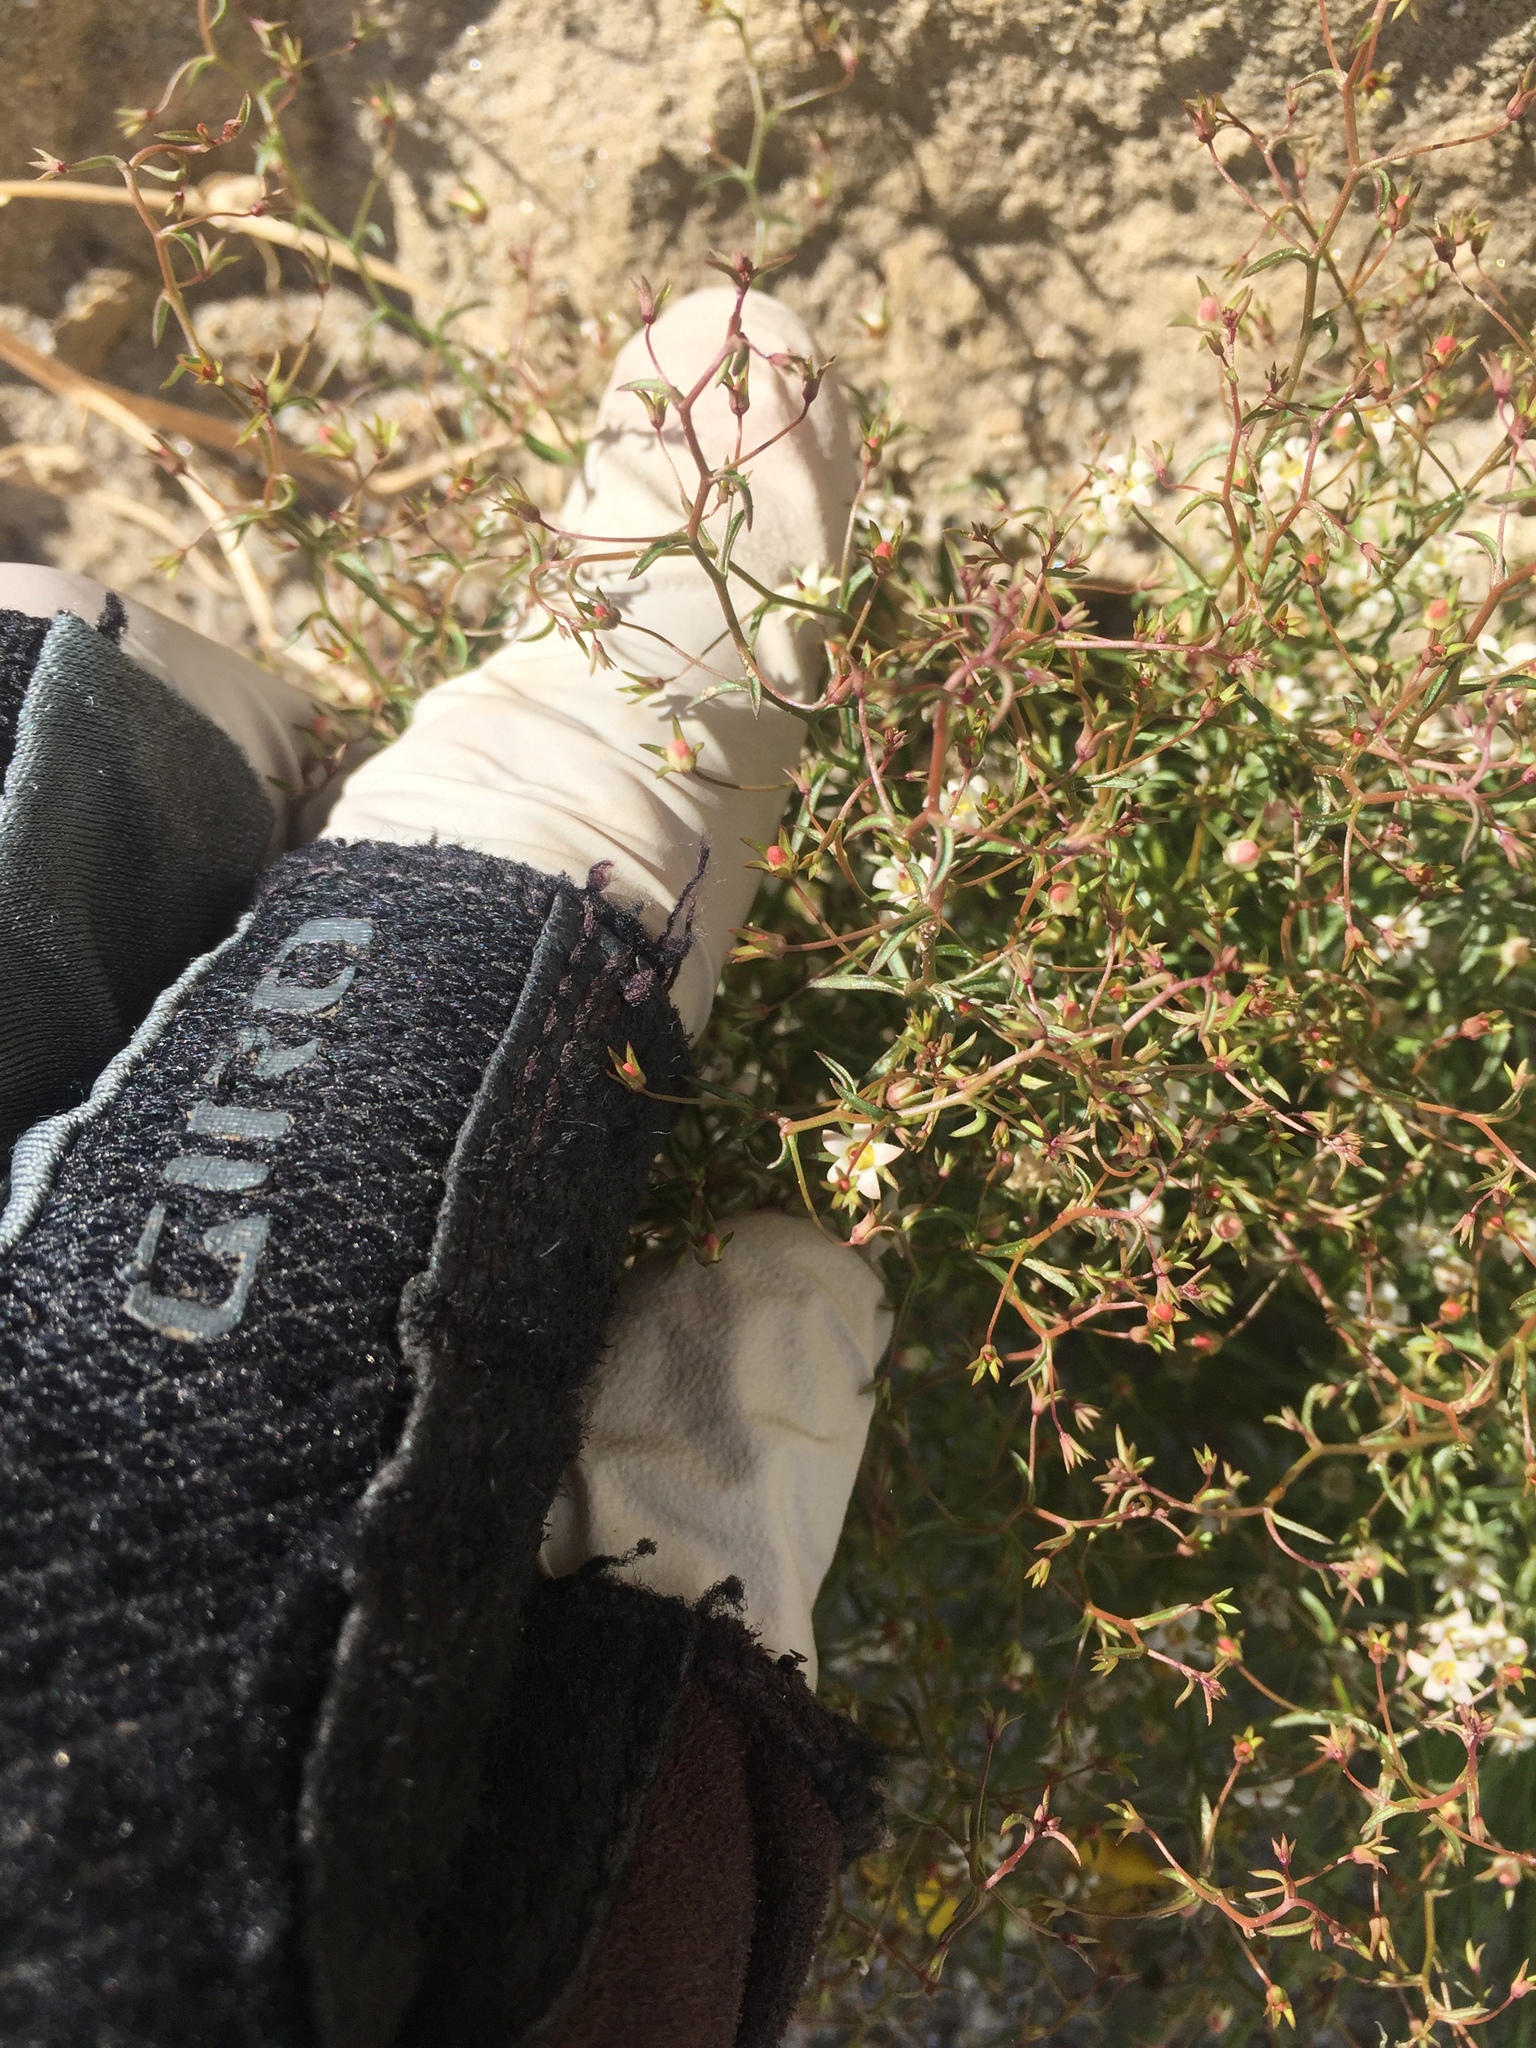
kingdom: Plantae
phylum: Tracheophyta
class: Magnoliopsida
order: Asterales
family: Campanulaceae
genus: Nemacladus
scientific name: Nemacladus glanduliferus
